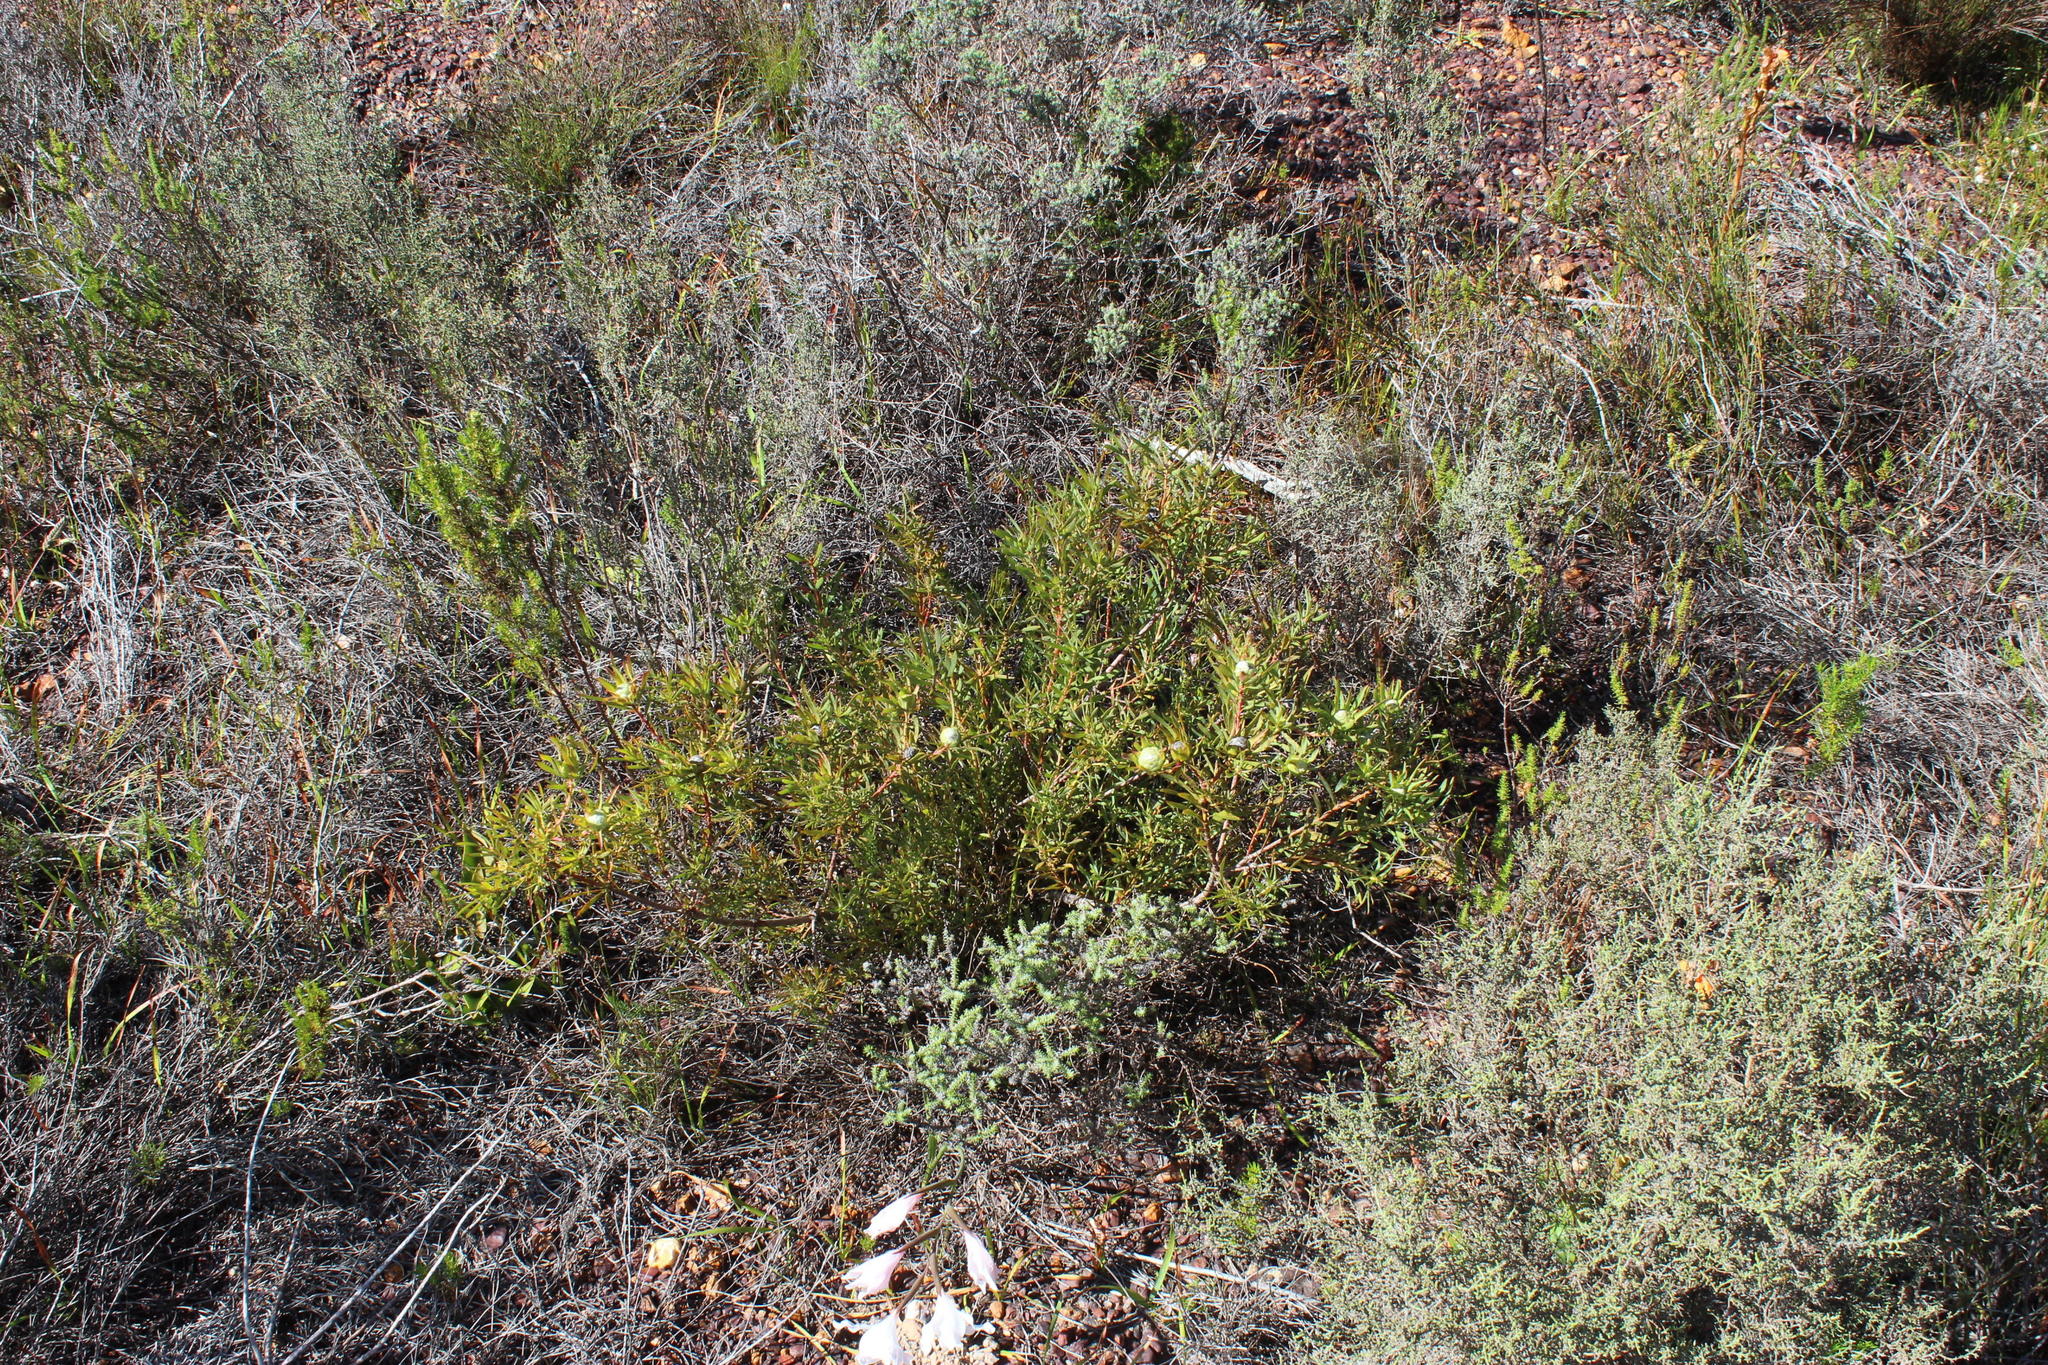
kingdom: Plantae
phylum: Tracheophyta
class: Magnoliopsida
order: Proteales
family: Proteaceae
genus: Diastella
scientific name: Diastella thymelaeoides
